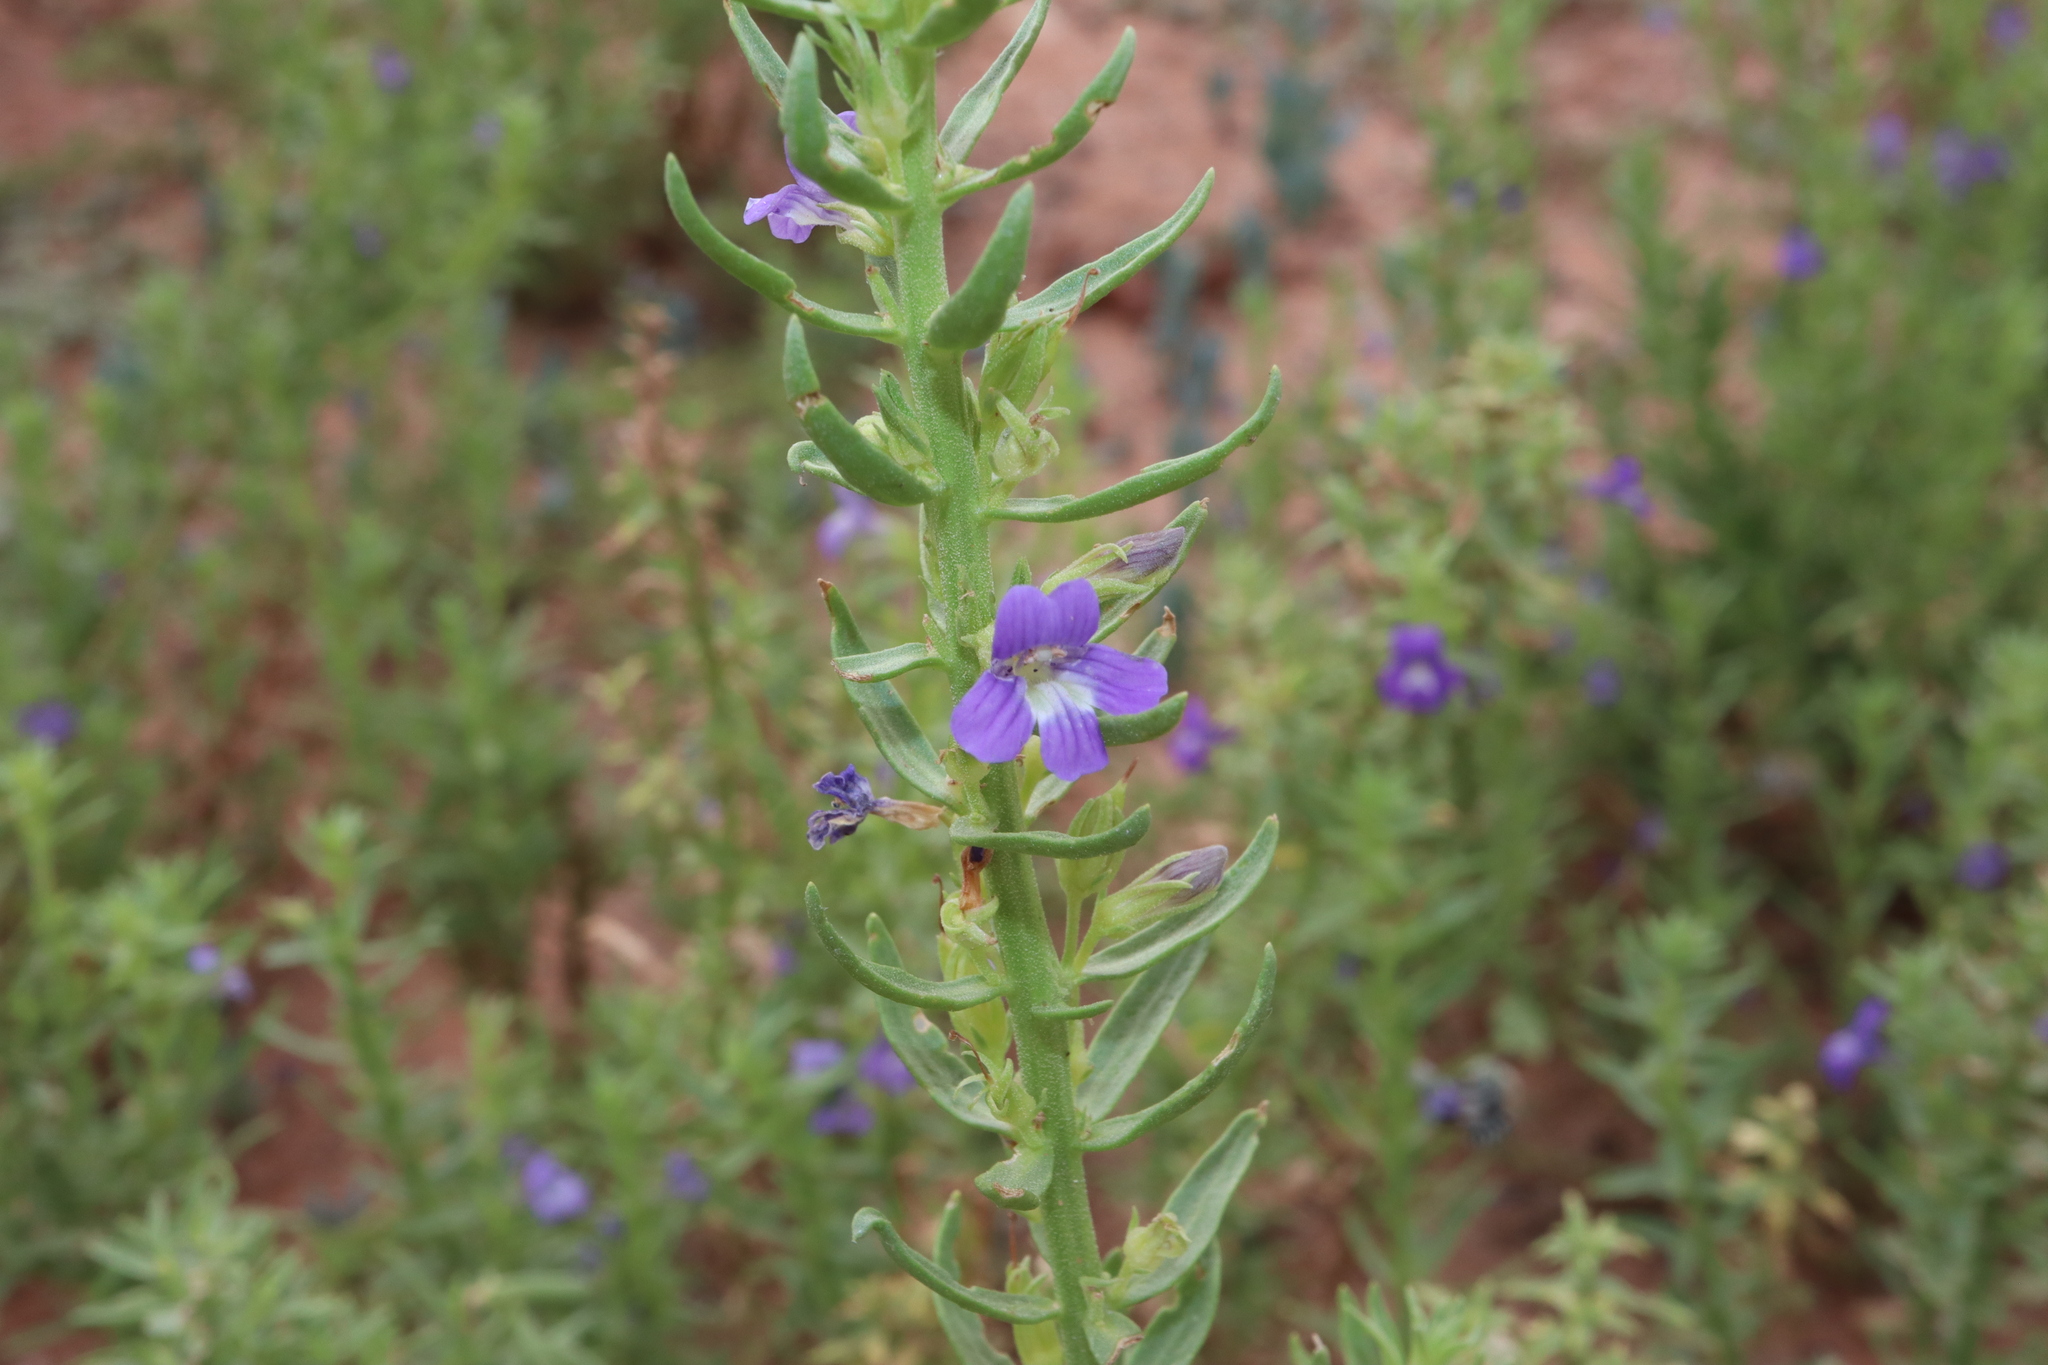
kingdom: Plantae
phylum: Tracheophyta
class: Magnoliopsida
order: Lamiales
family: Plantaginaceae
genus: Stemodia
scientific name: Stemodia florulenta
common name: Bluerod
